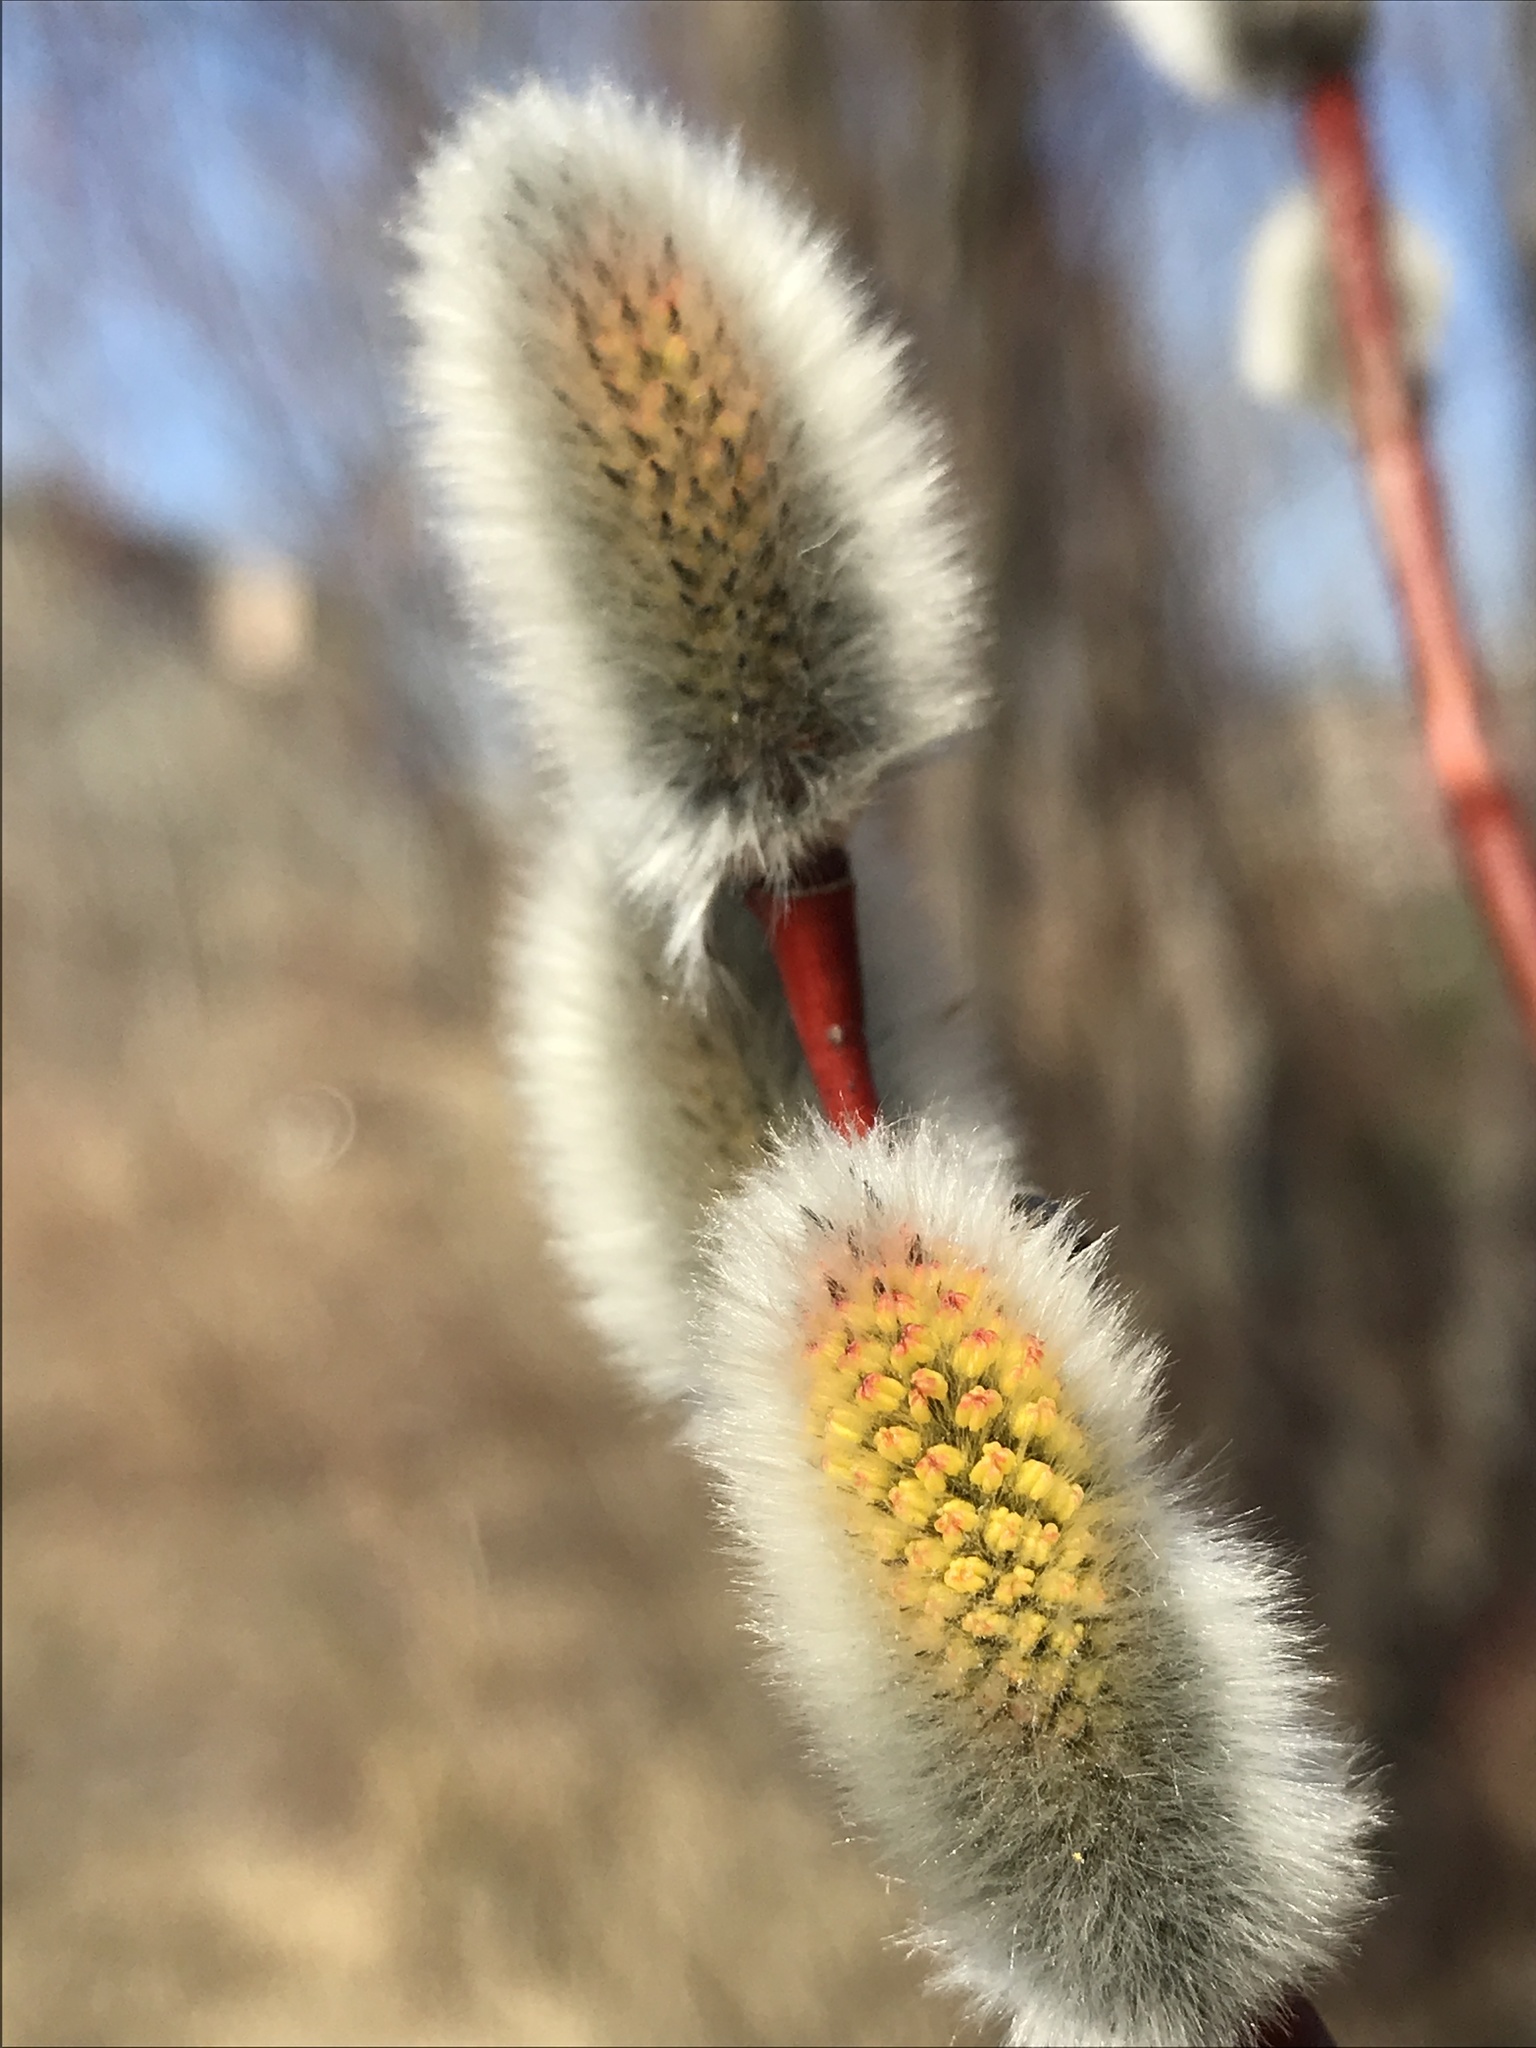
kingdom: Plantae
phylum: Tracheophyta
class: Magnoliopsida
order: Malpighiales
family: Salicaceae
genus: Salix
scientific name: Salix acutifolia
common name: Siberian violet-willow
